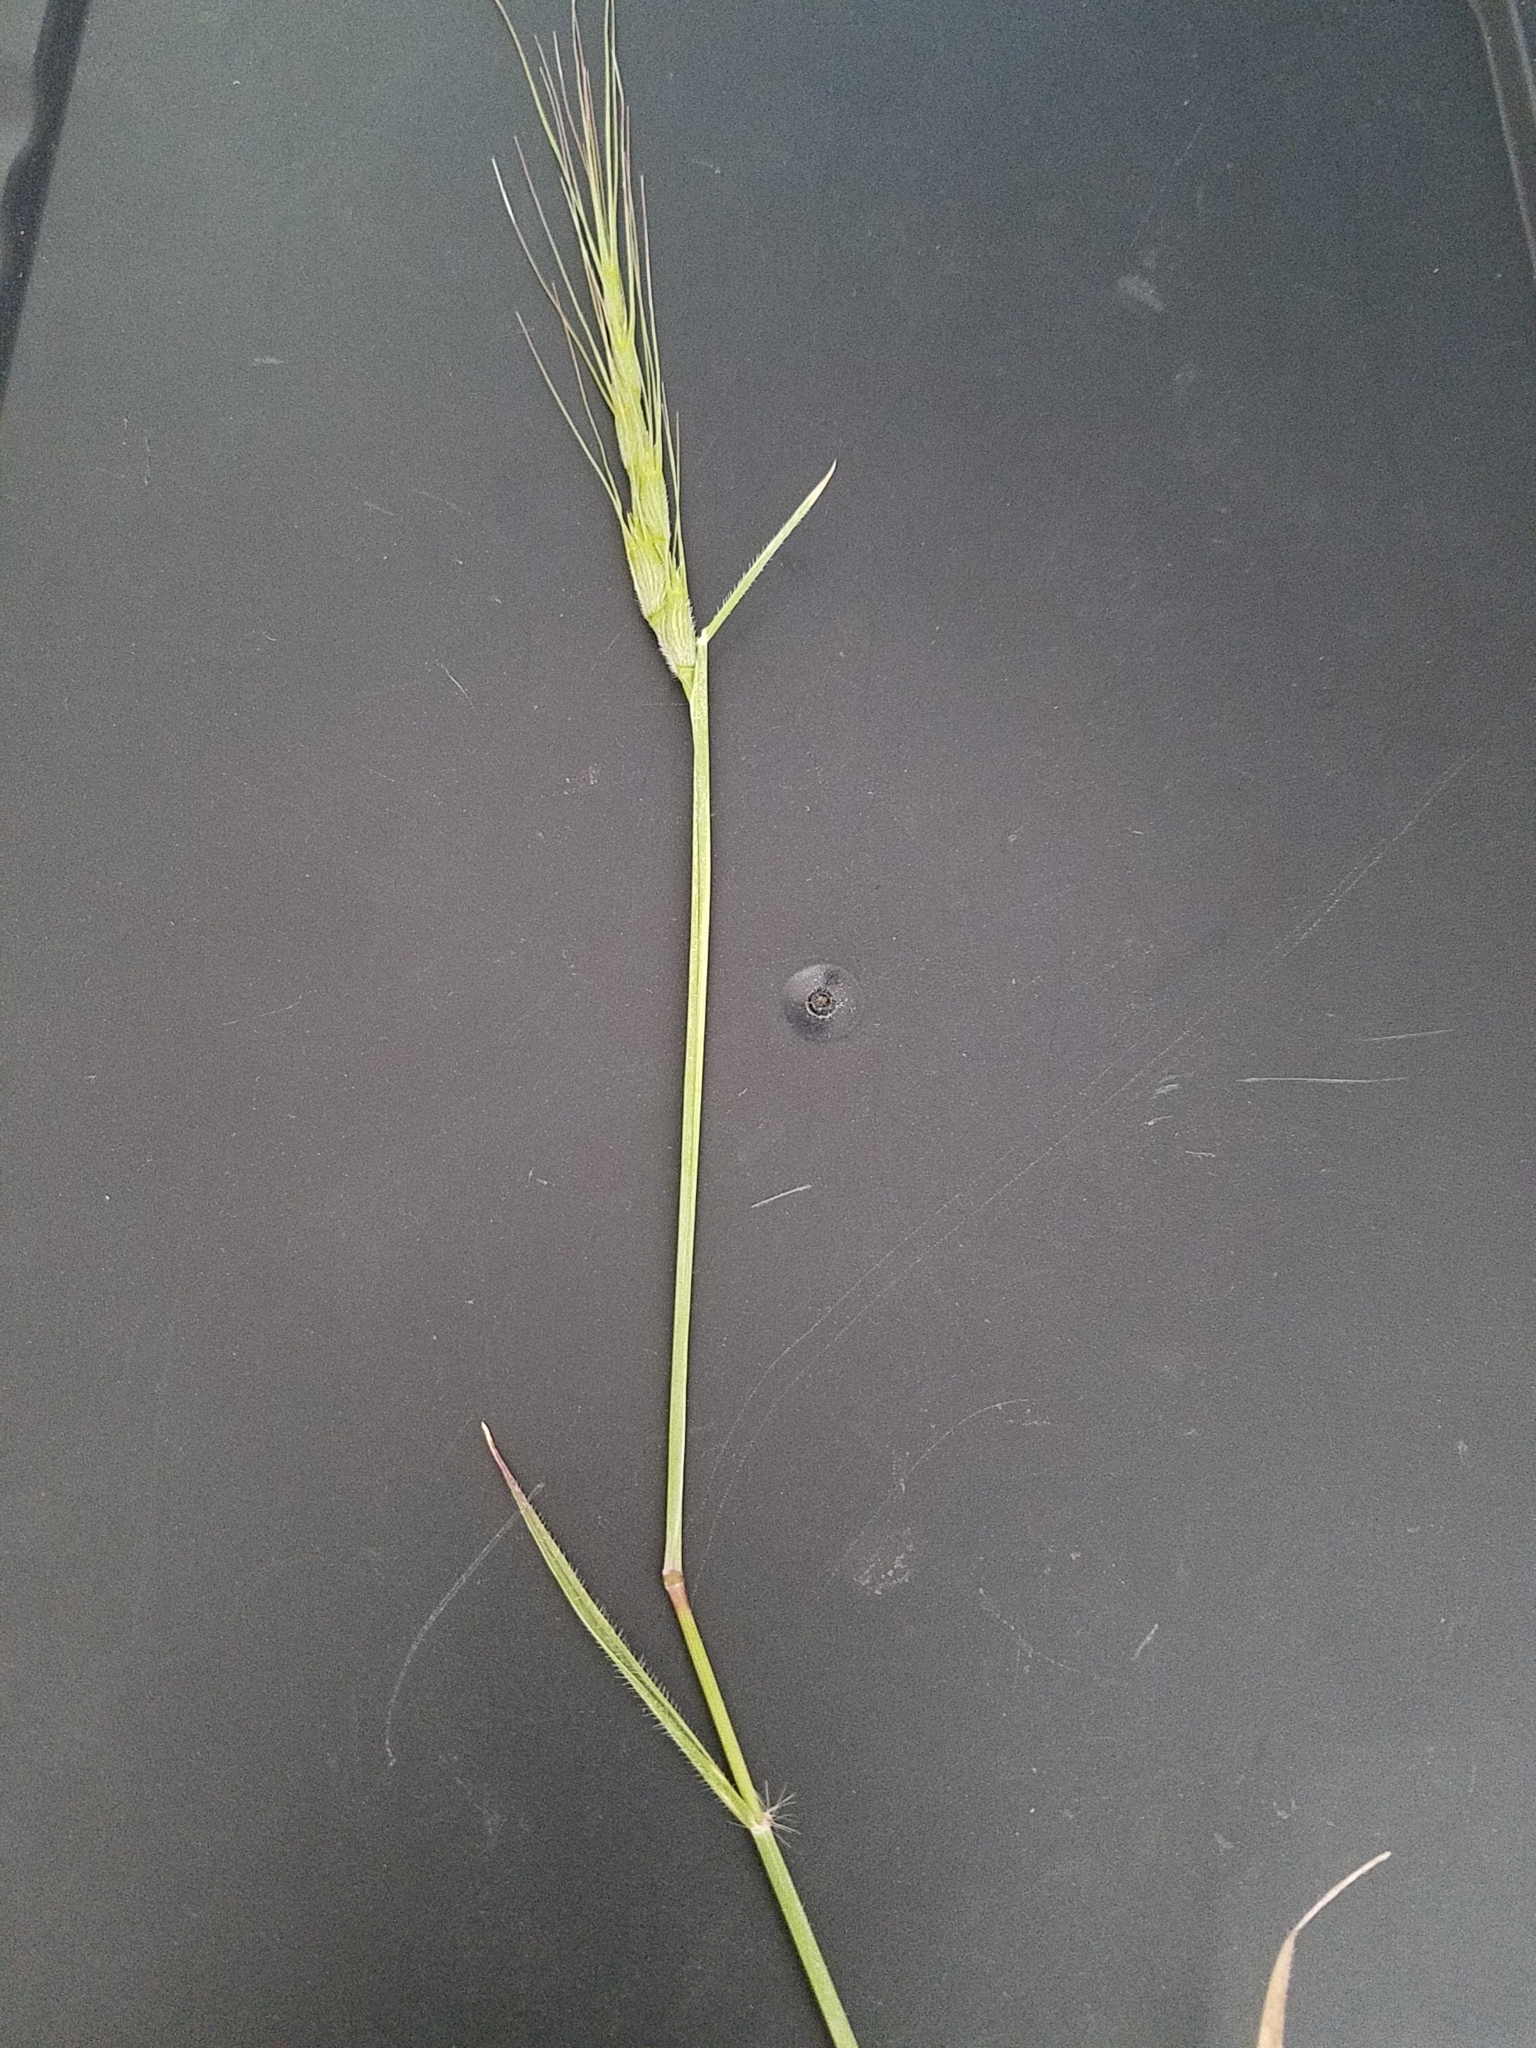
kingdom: Plantae
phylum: Tracheophyta
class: Liliopsida
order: Poales
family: Poaceae
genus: Aegilops
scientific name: Aegilops triuncialis
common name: Barb goat grass
